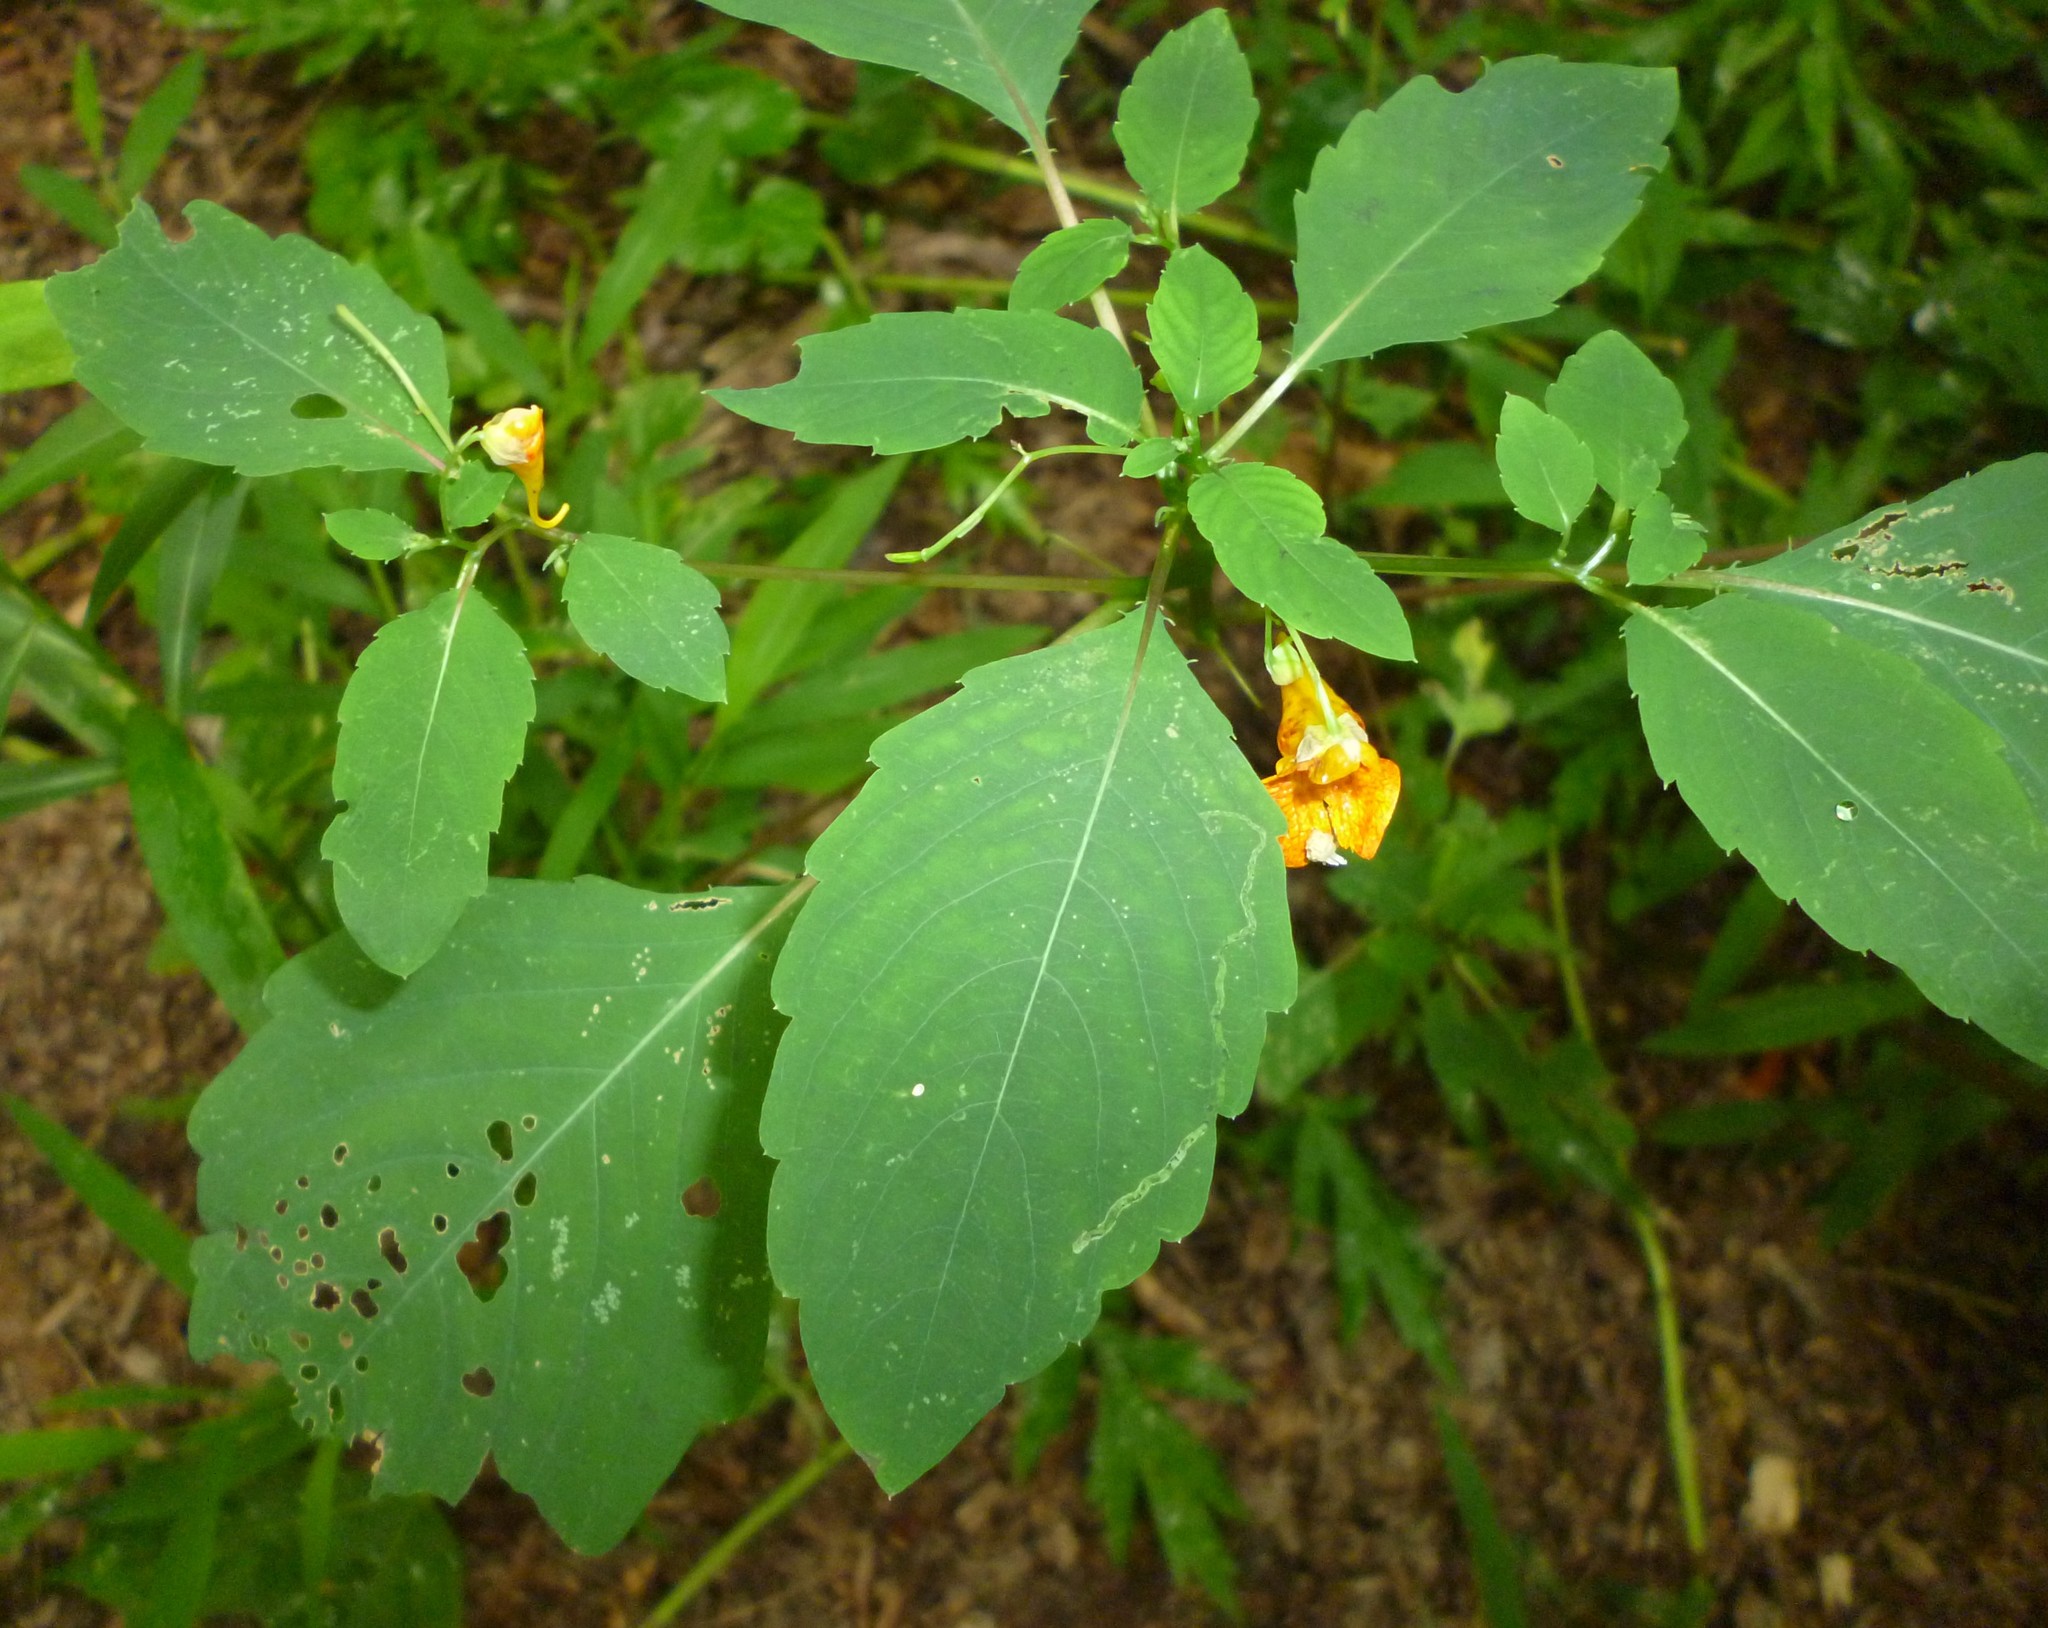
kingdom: Plantae
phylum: Tracheophyta
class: Magnoliopsida
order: Ericales
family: Balsaminaceae
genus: Impatiens
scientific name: Impatiens capensis
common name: Orange balsam
